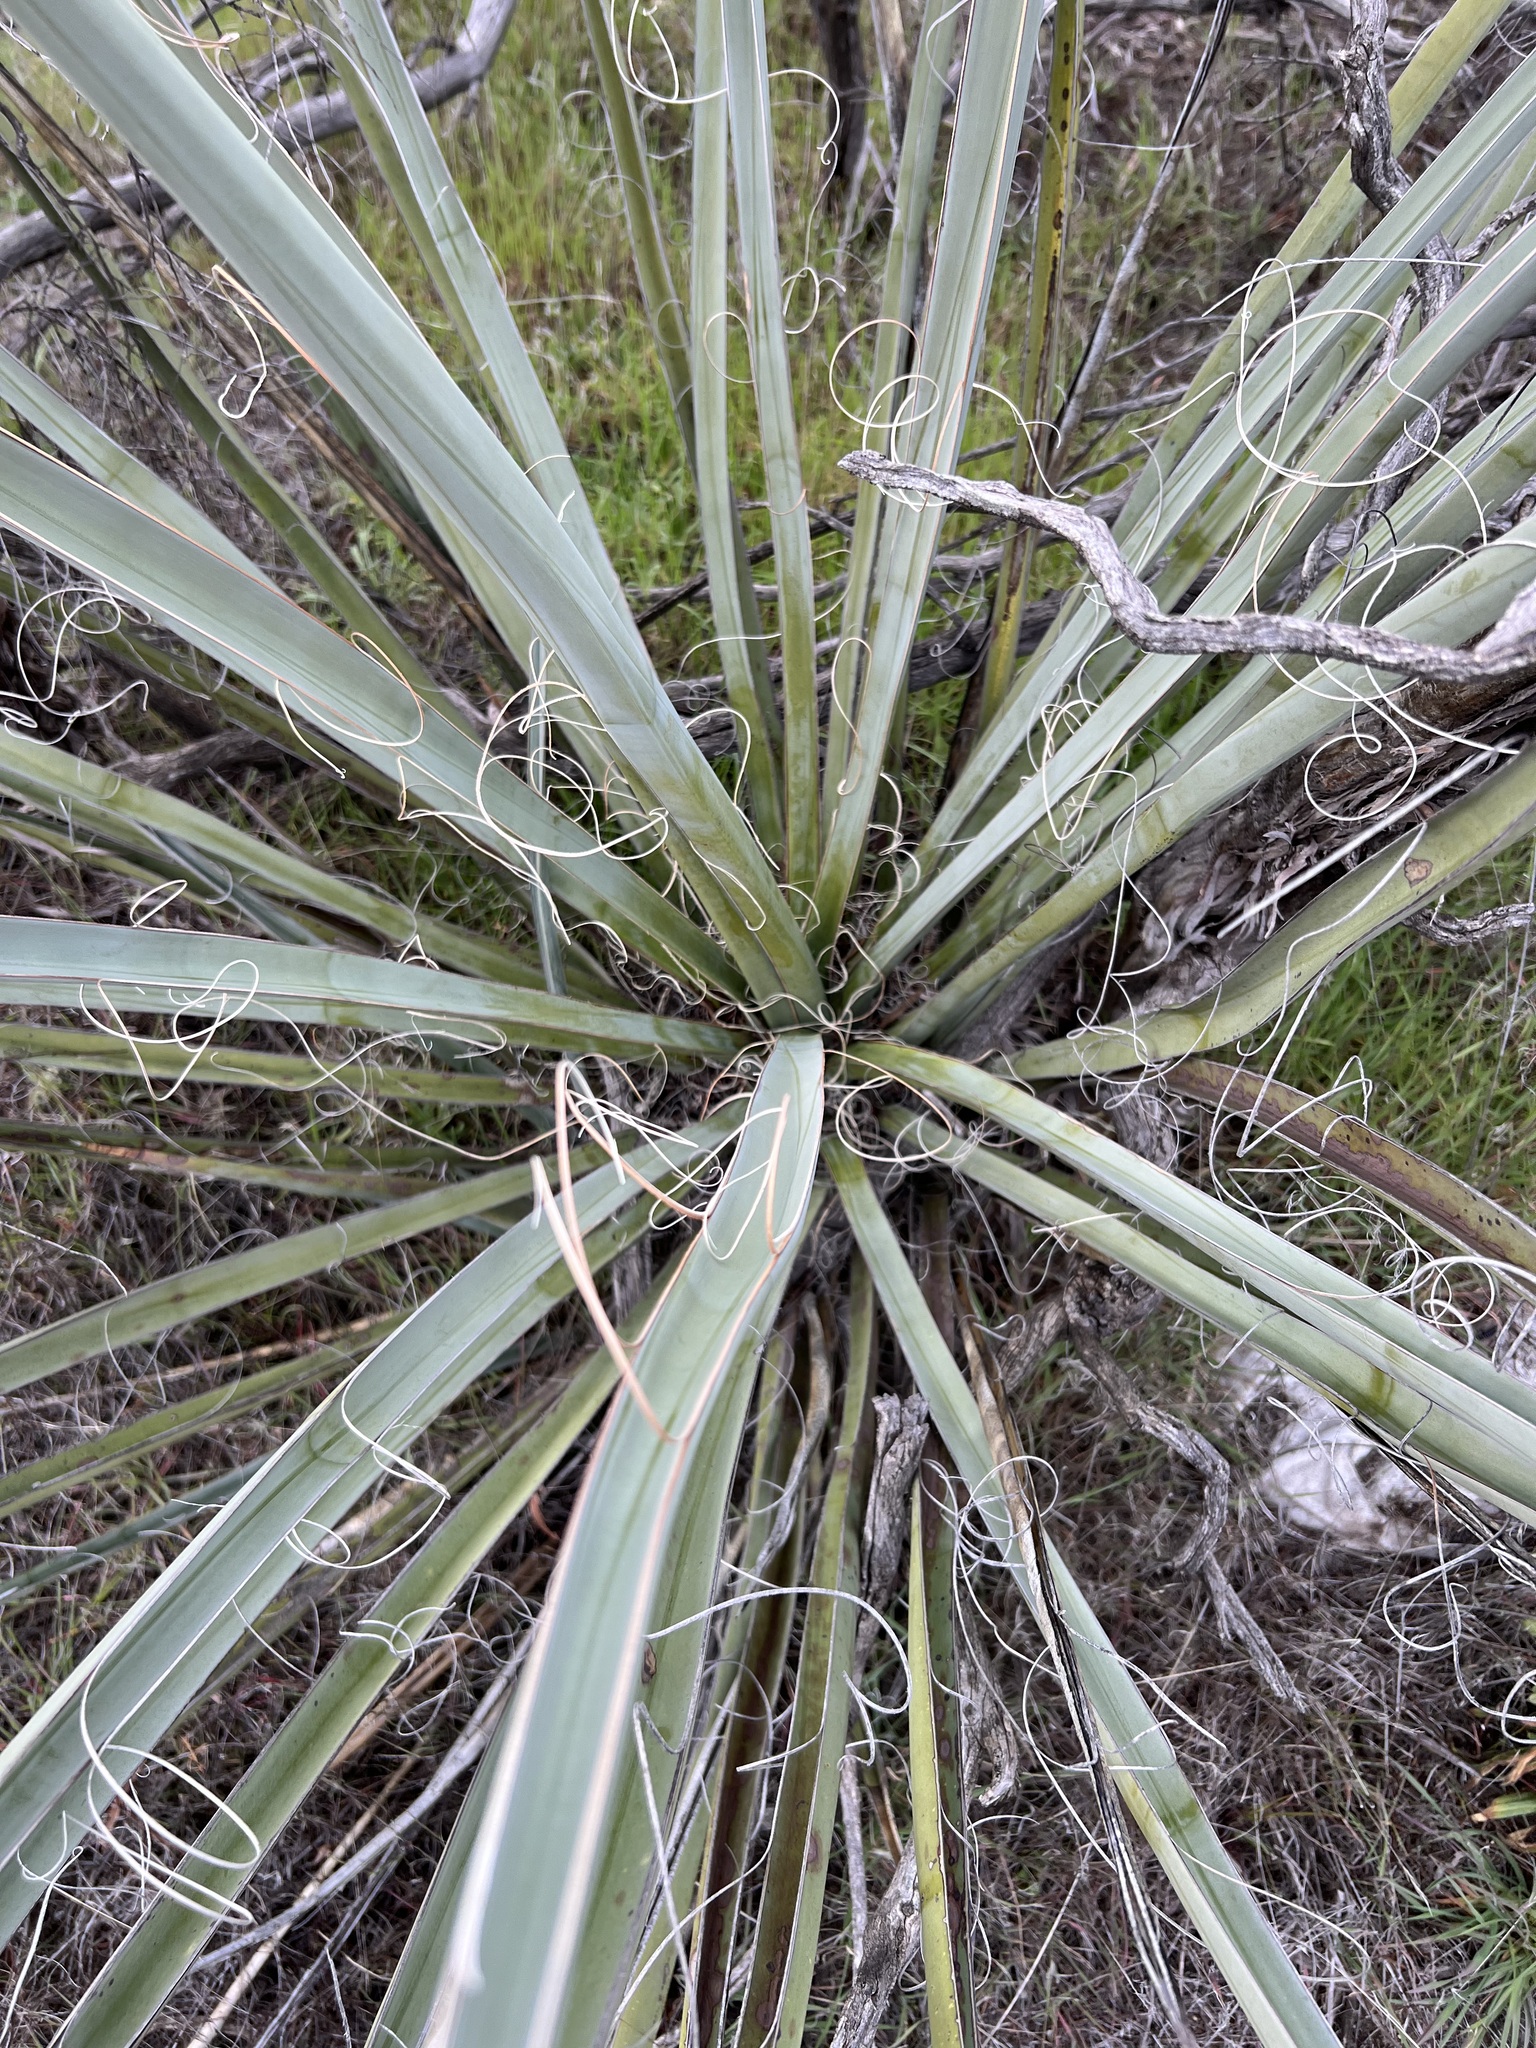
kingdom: Plantae
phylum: Tracheophyta
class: Liliopsida
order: Asparagales
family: Asparagaceae
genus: Yucca
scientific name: Yucca schidigera
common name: Mojave yucca
